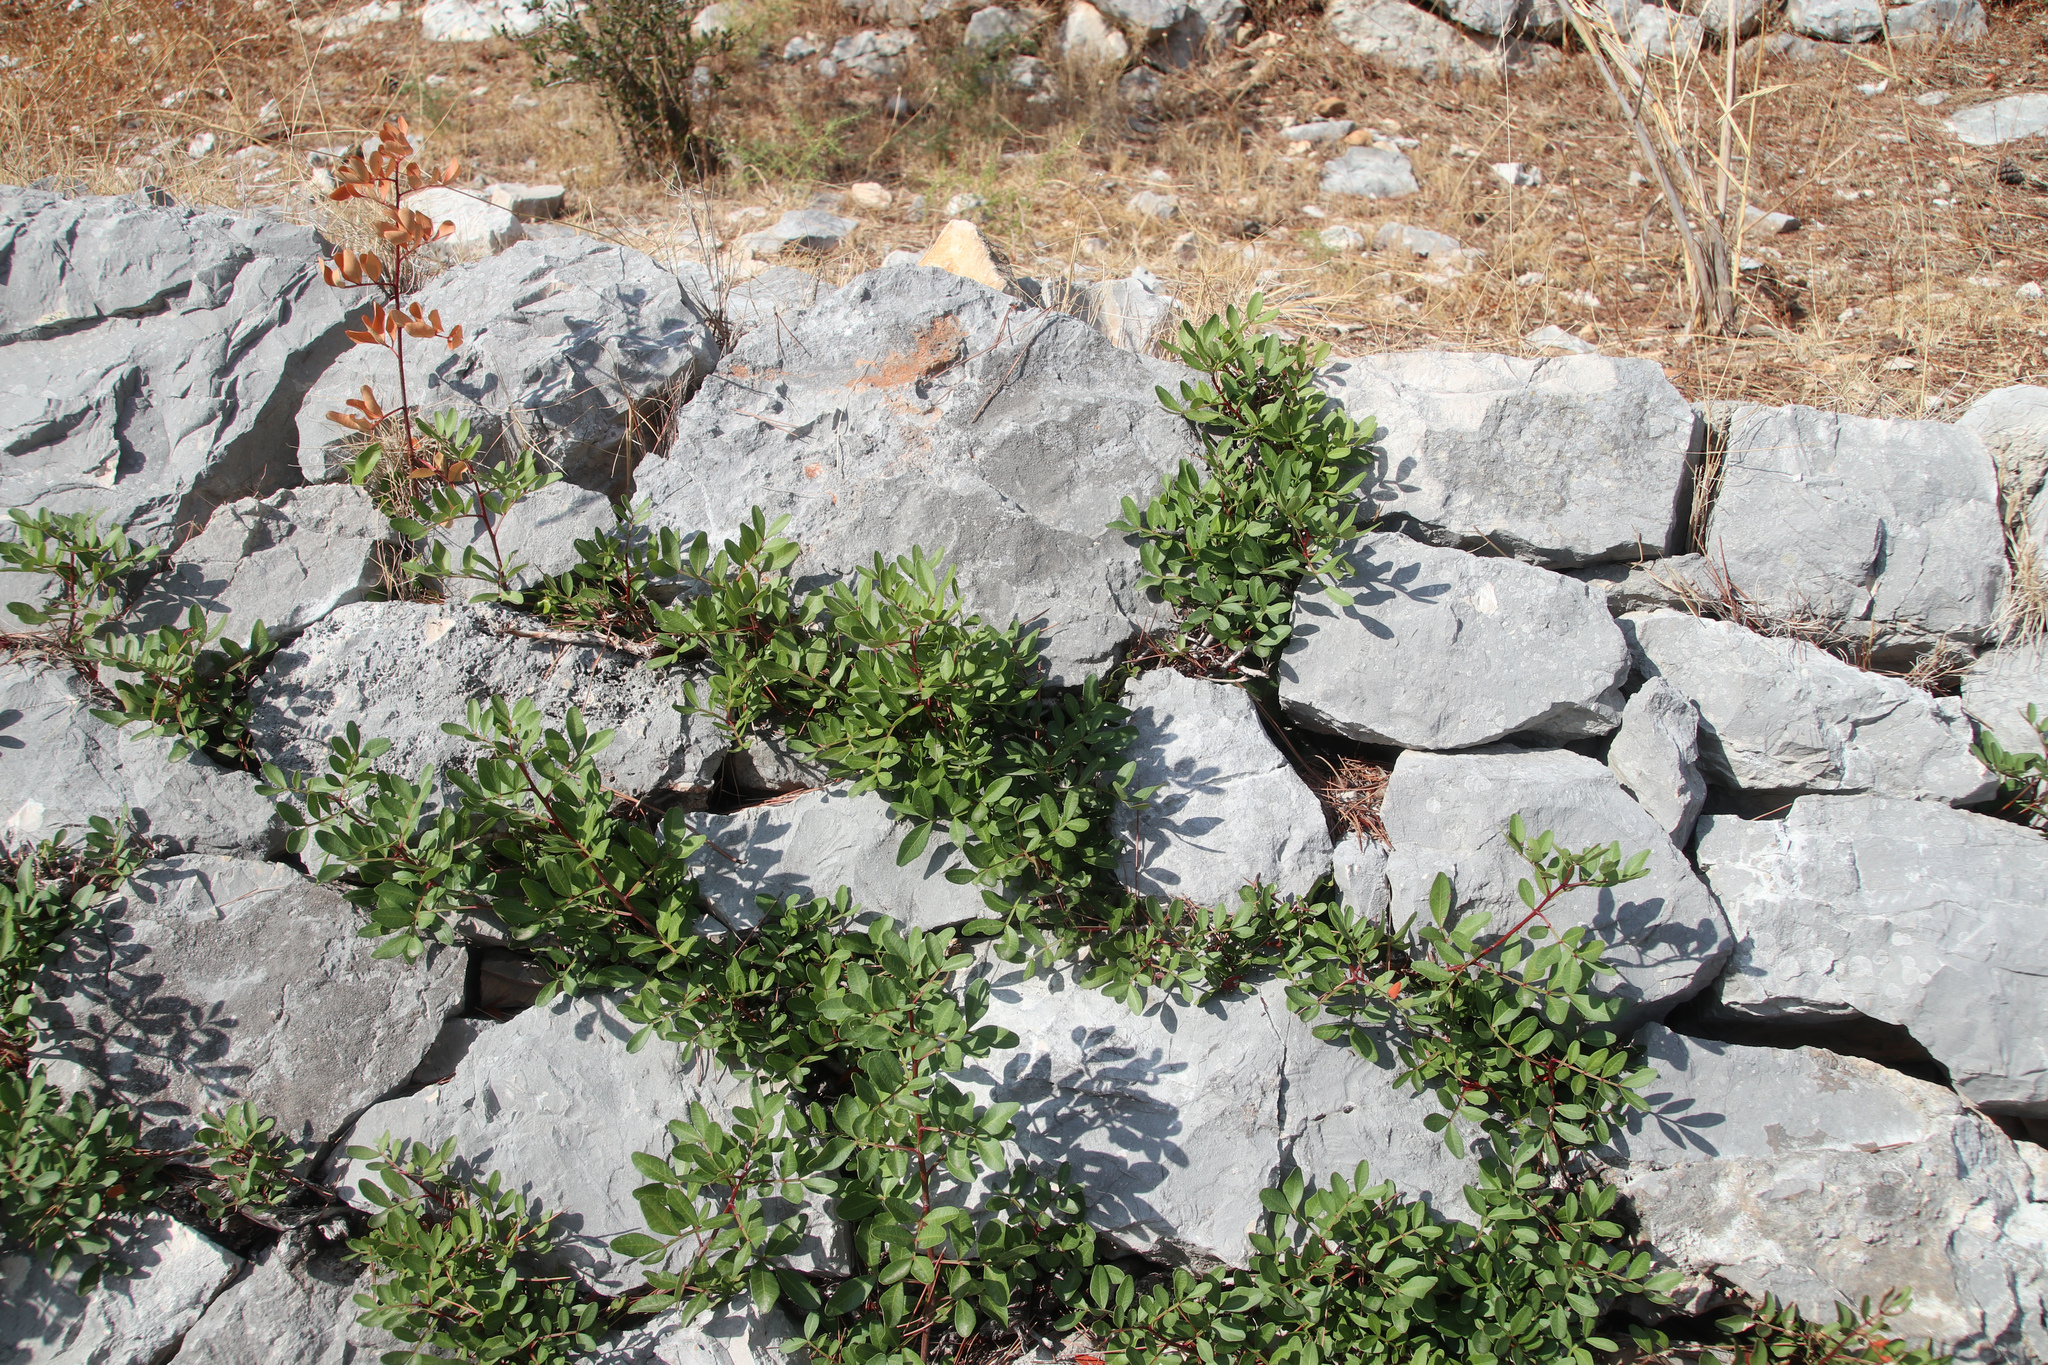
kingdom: Plantae
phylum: Tracheophyta
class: Magnoliopsida
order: Sapindales
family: Anacardiaceae
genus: Pistacia
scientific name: Pistacia lentiscus
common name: Lentisk
